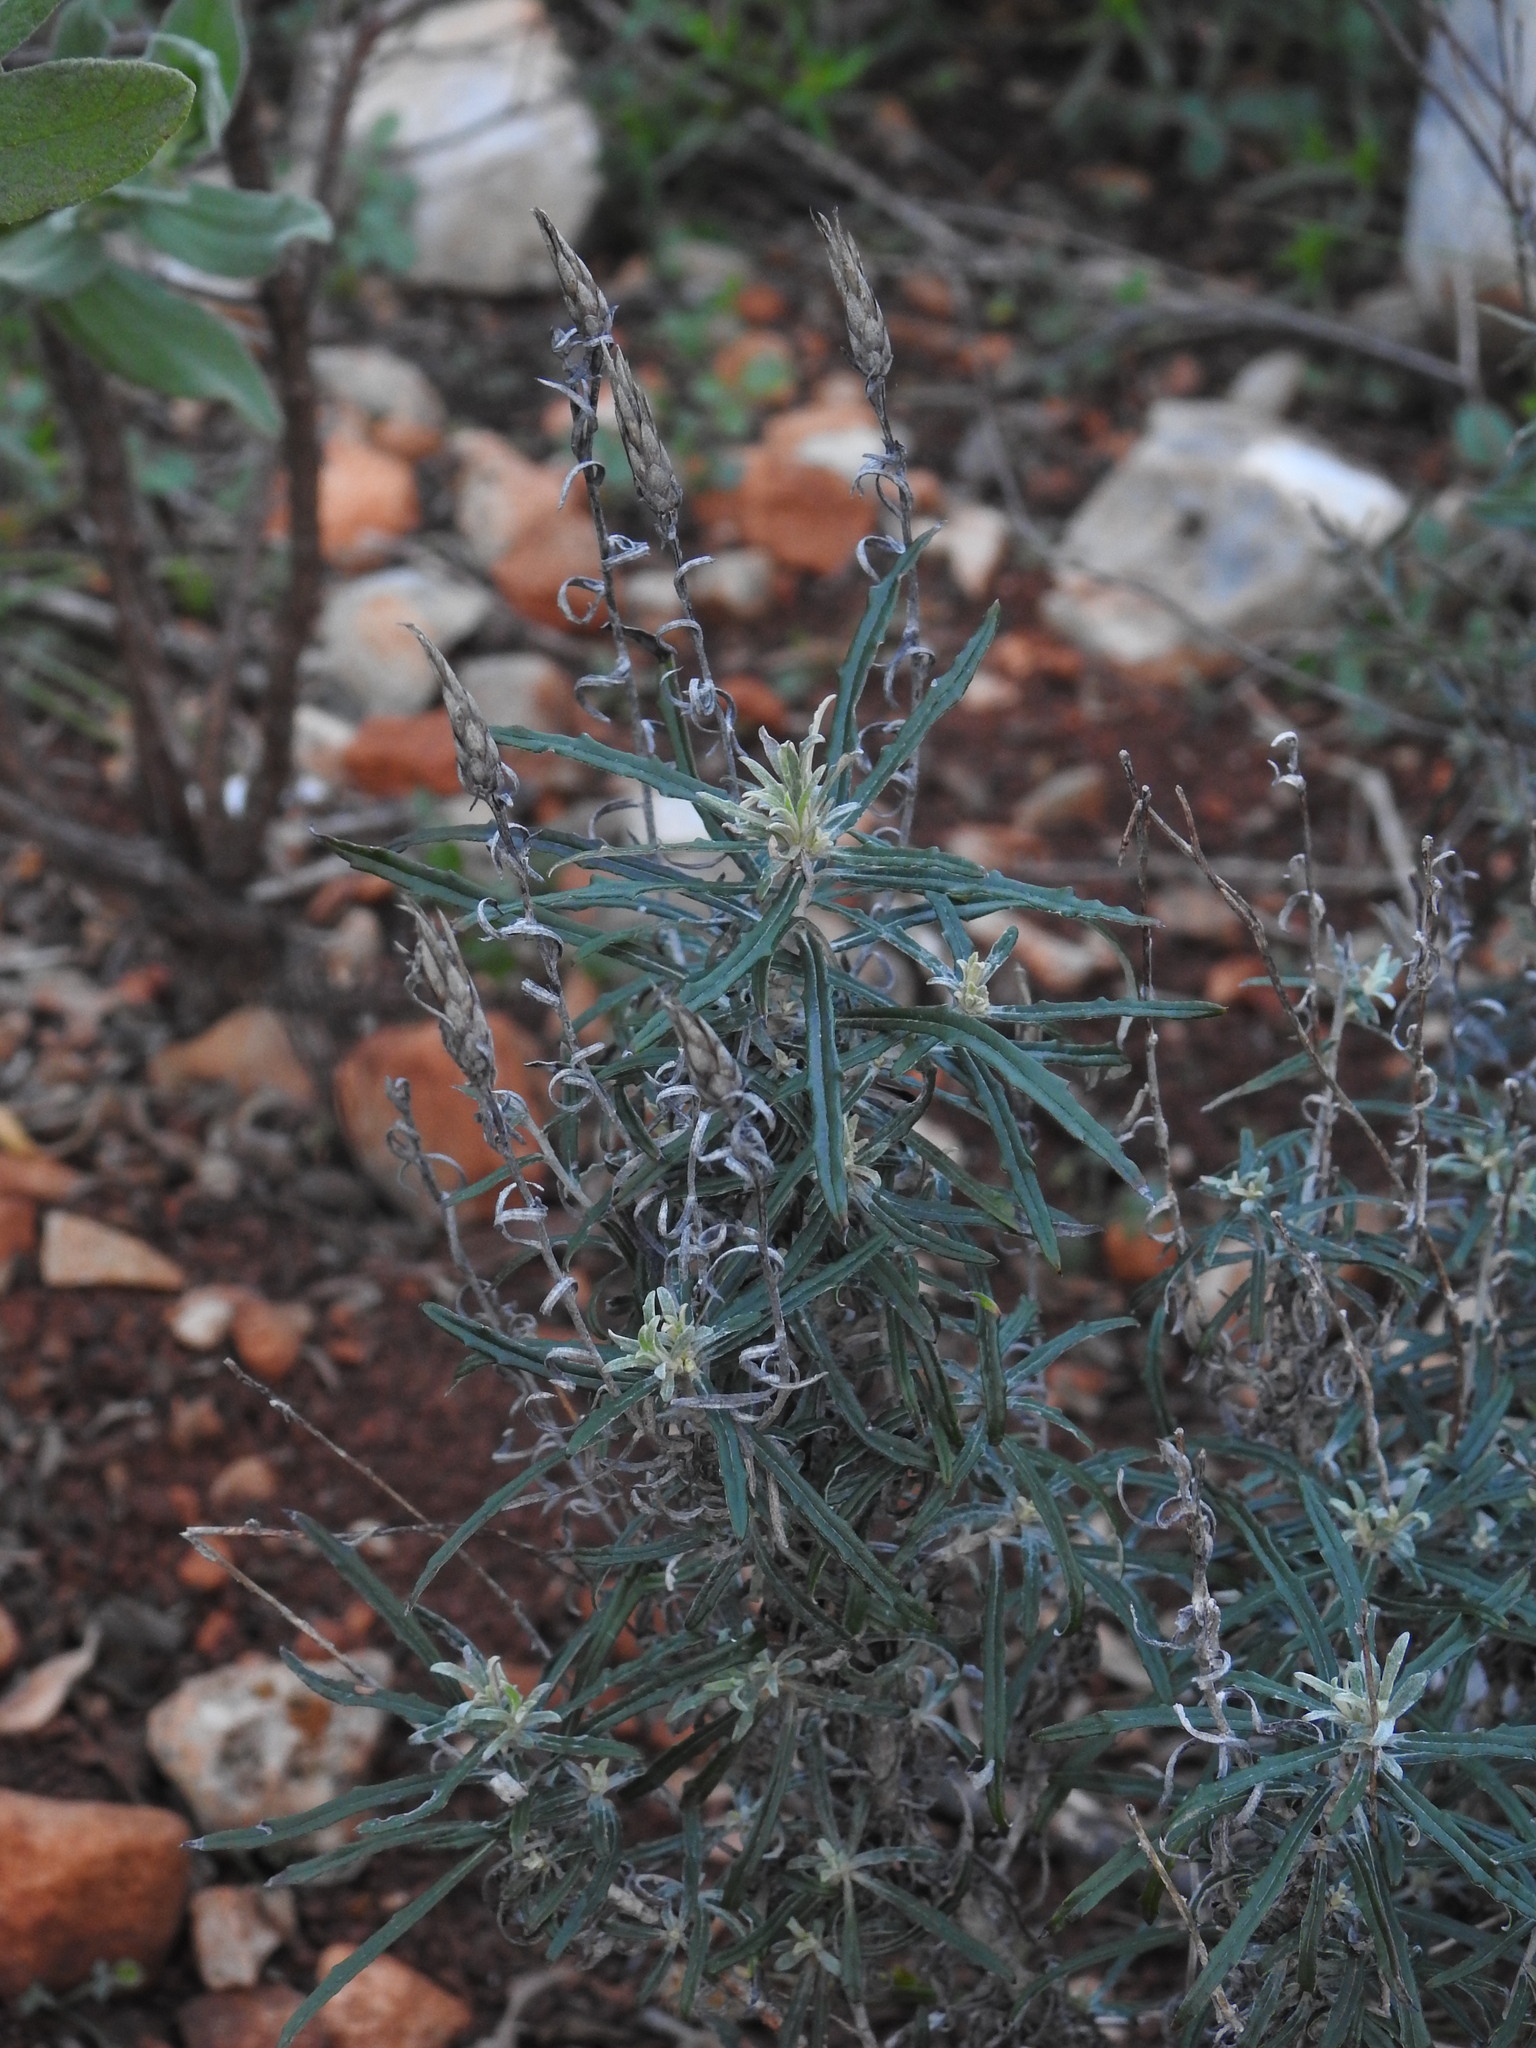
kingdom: Plantae
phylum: Tracheophyta
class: Magnoliopsida
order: Asterales
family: Asteraceae
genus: Staehelina
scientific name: Staehelina dubia
